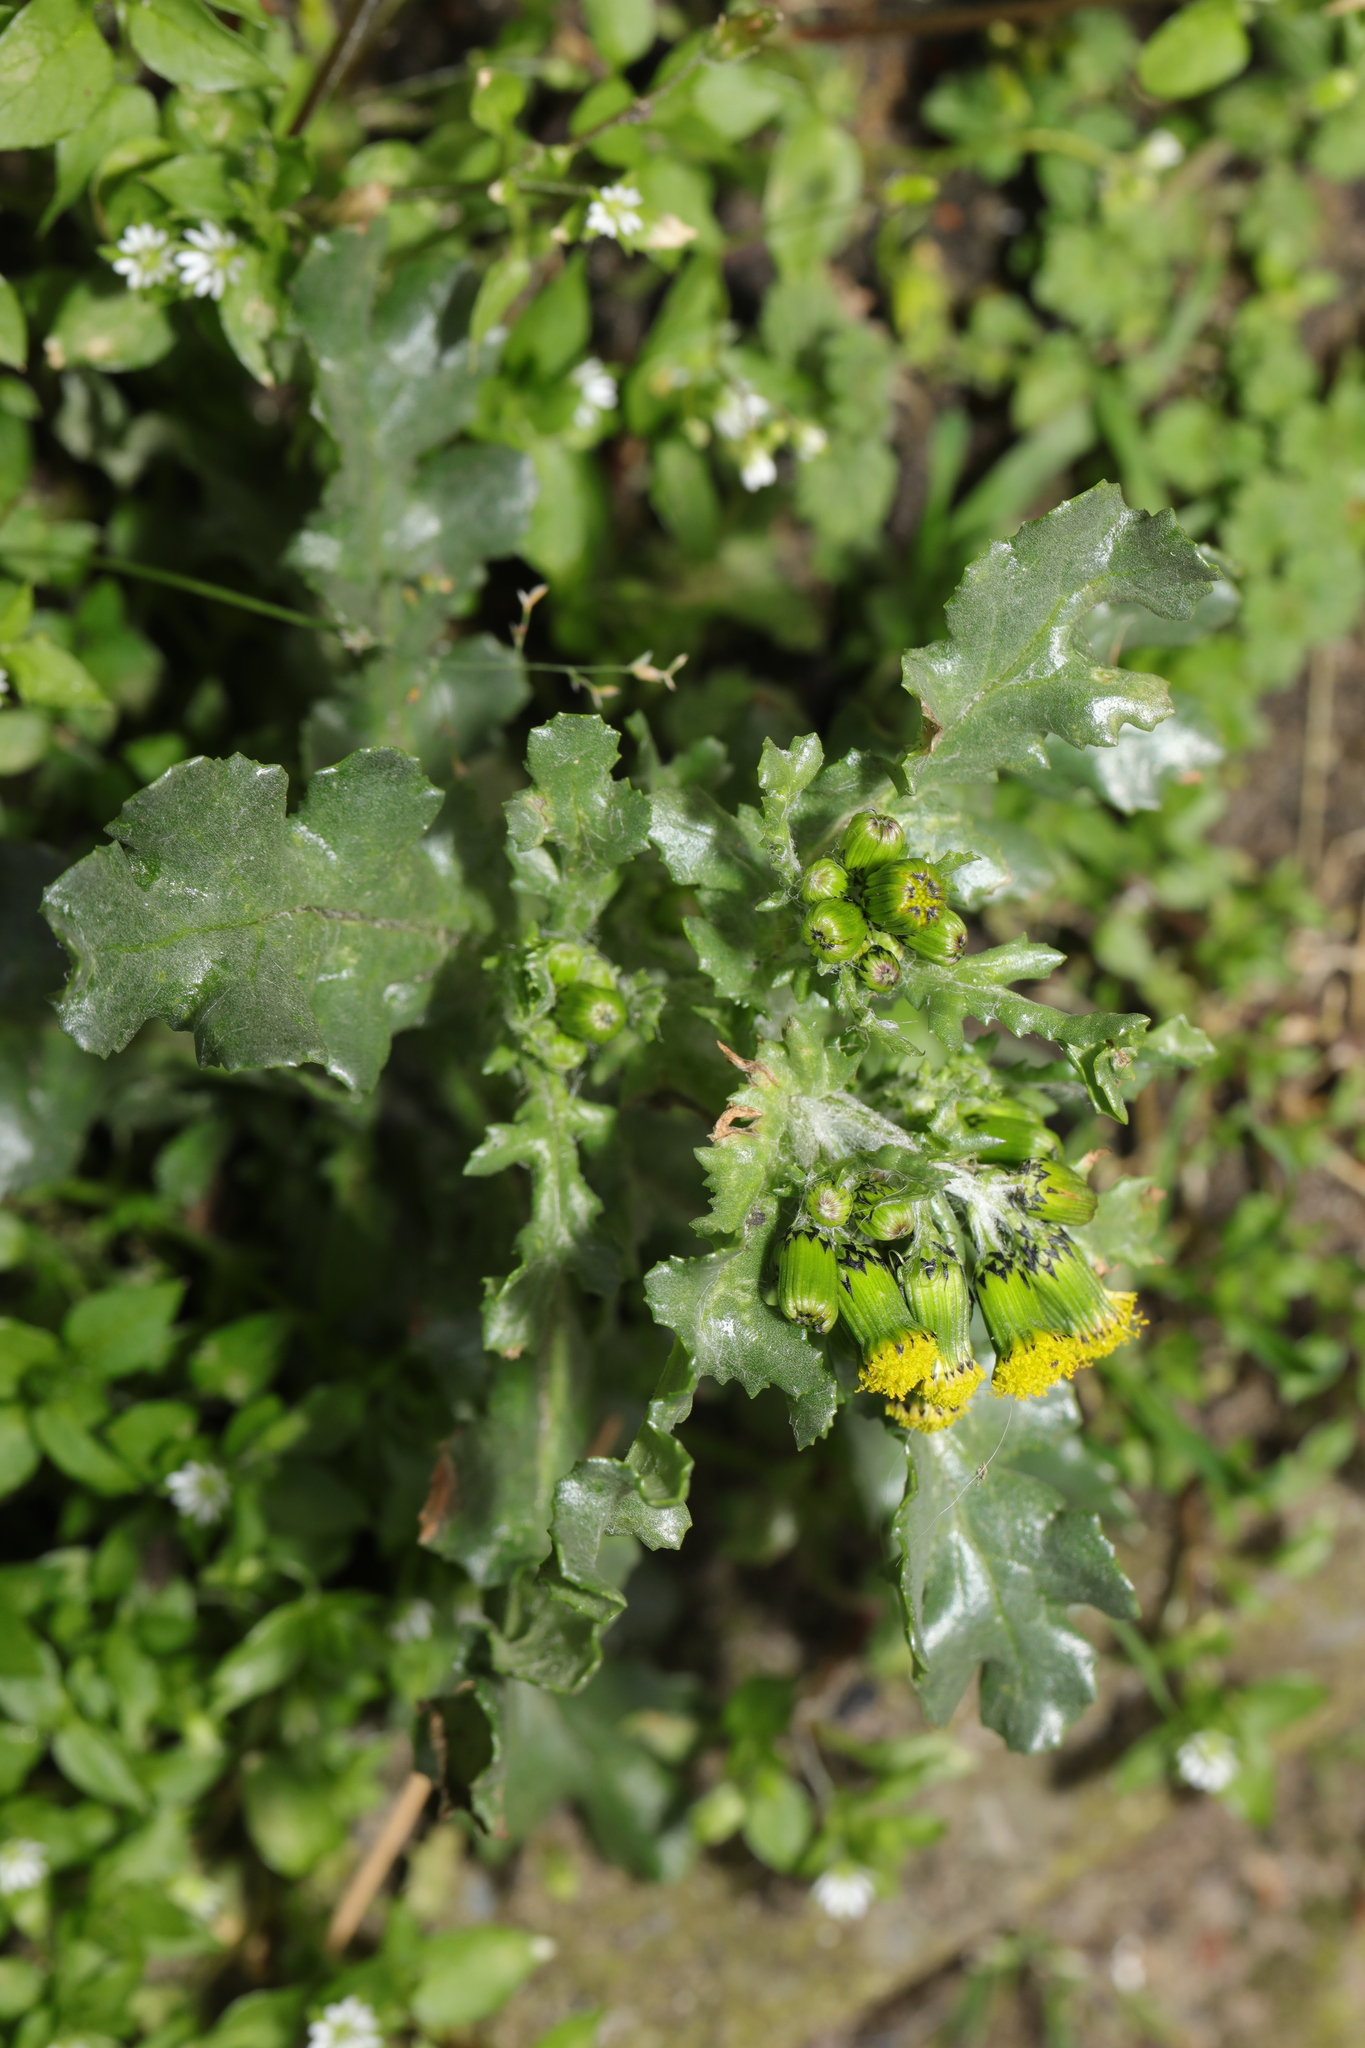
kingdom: Plantae
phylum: Tracheophyta
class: Magnoliopsida
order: Asterales
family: Asteraceae
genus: Senecio
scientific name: Senecio vulgaris
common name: Old-man-in-the-spring
